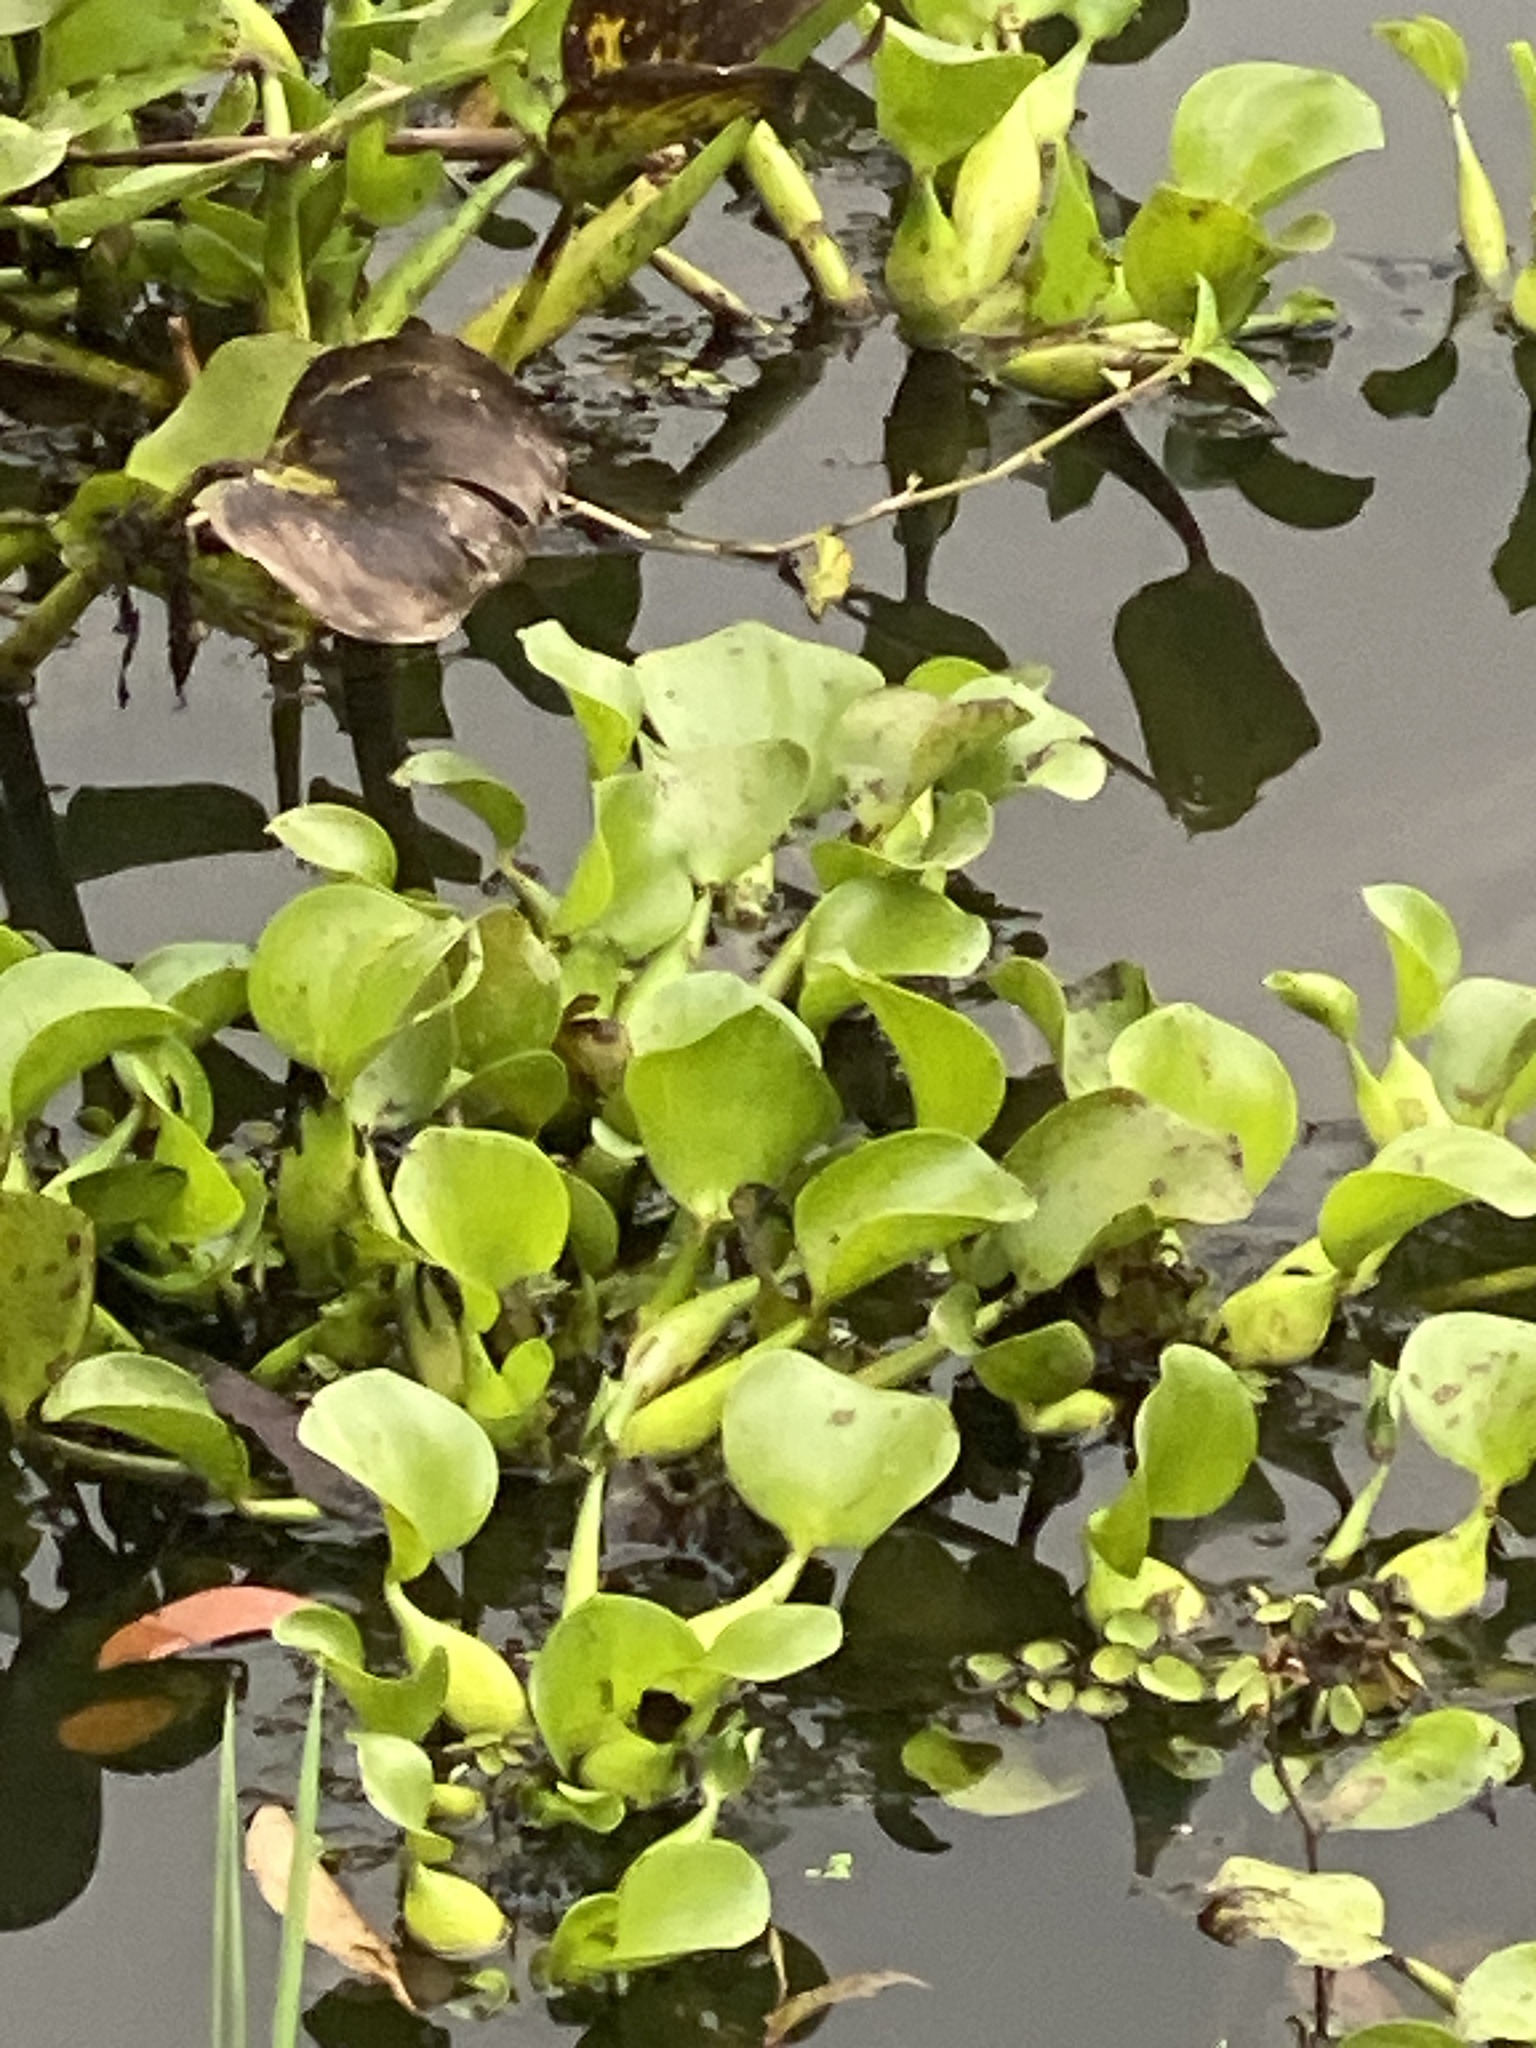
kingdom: Plantae
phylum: Tracheophyta
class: Liliopsida
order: Commelinales
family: Pontederiaceae
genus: Pontederia
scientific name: Pontederia crassipes
